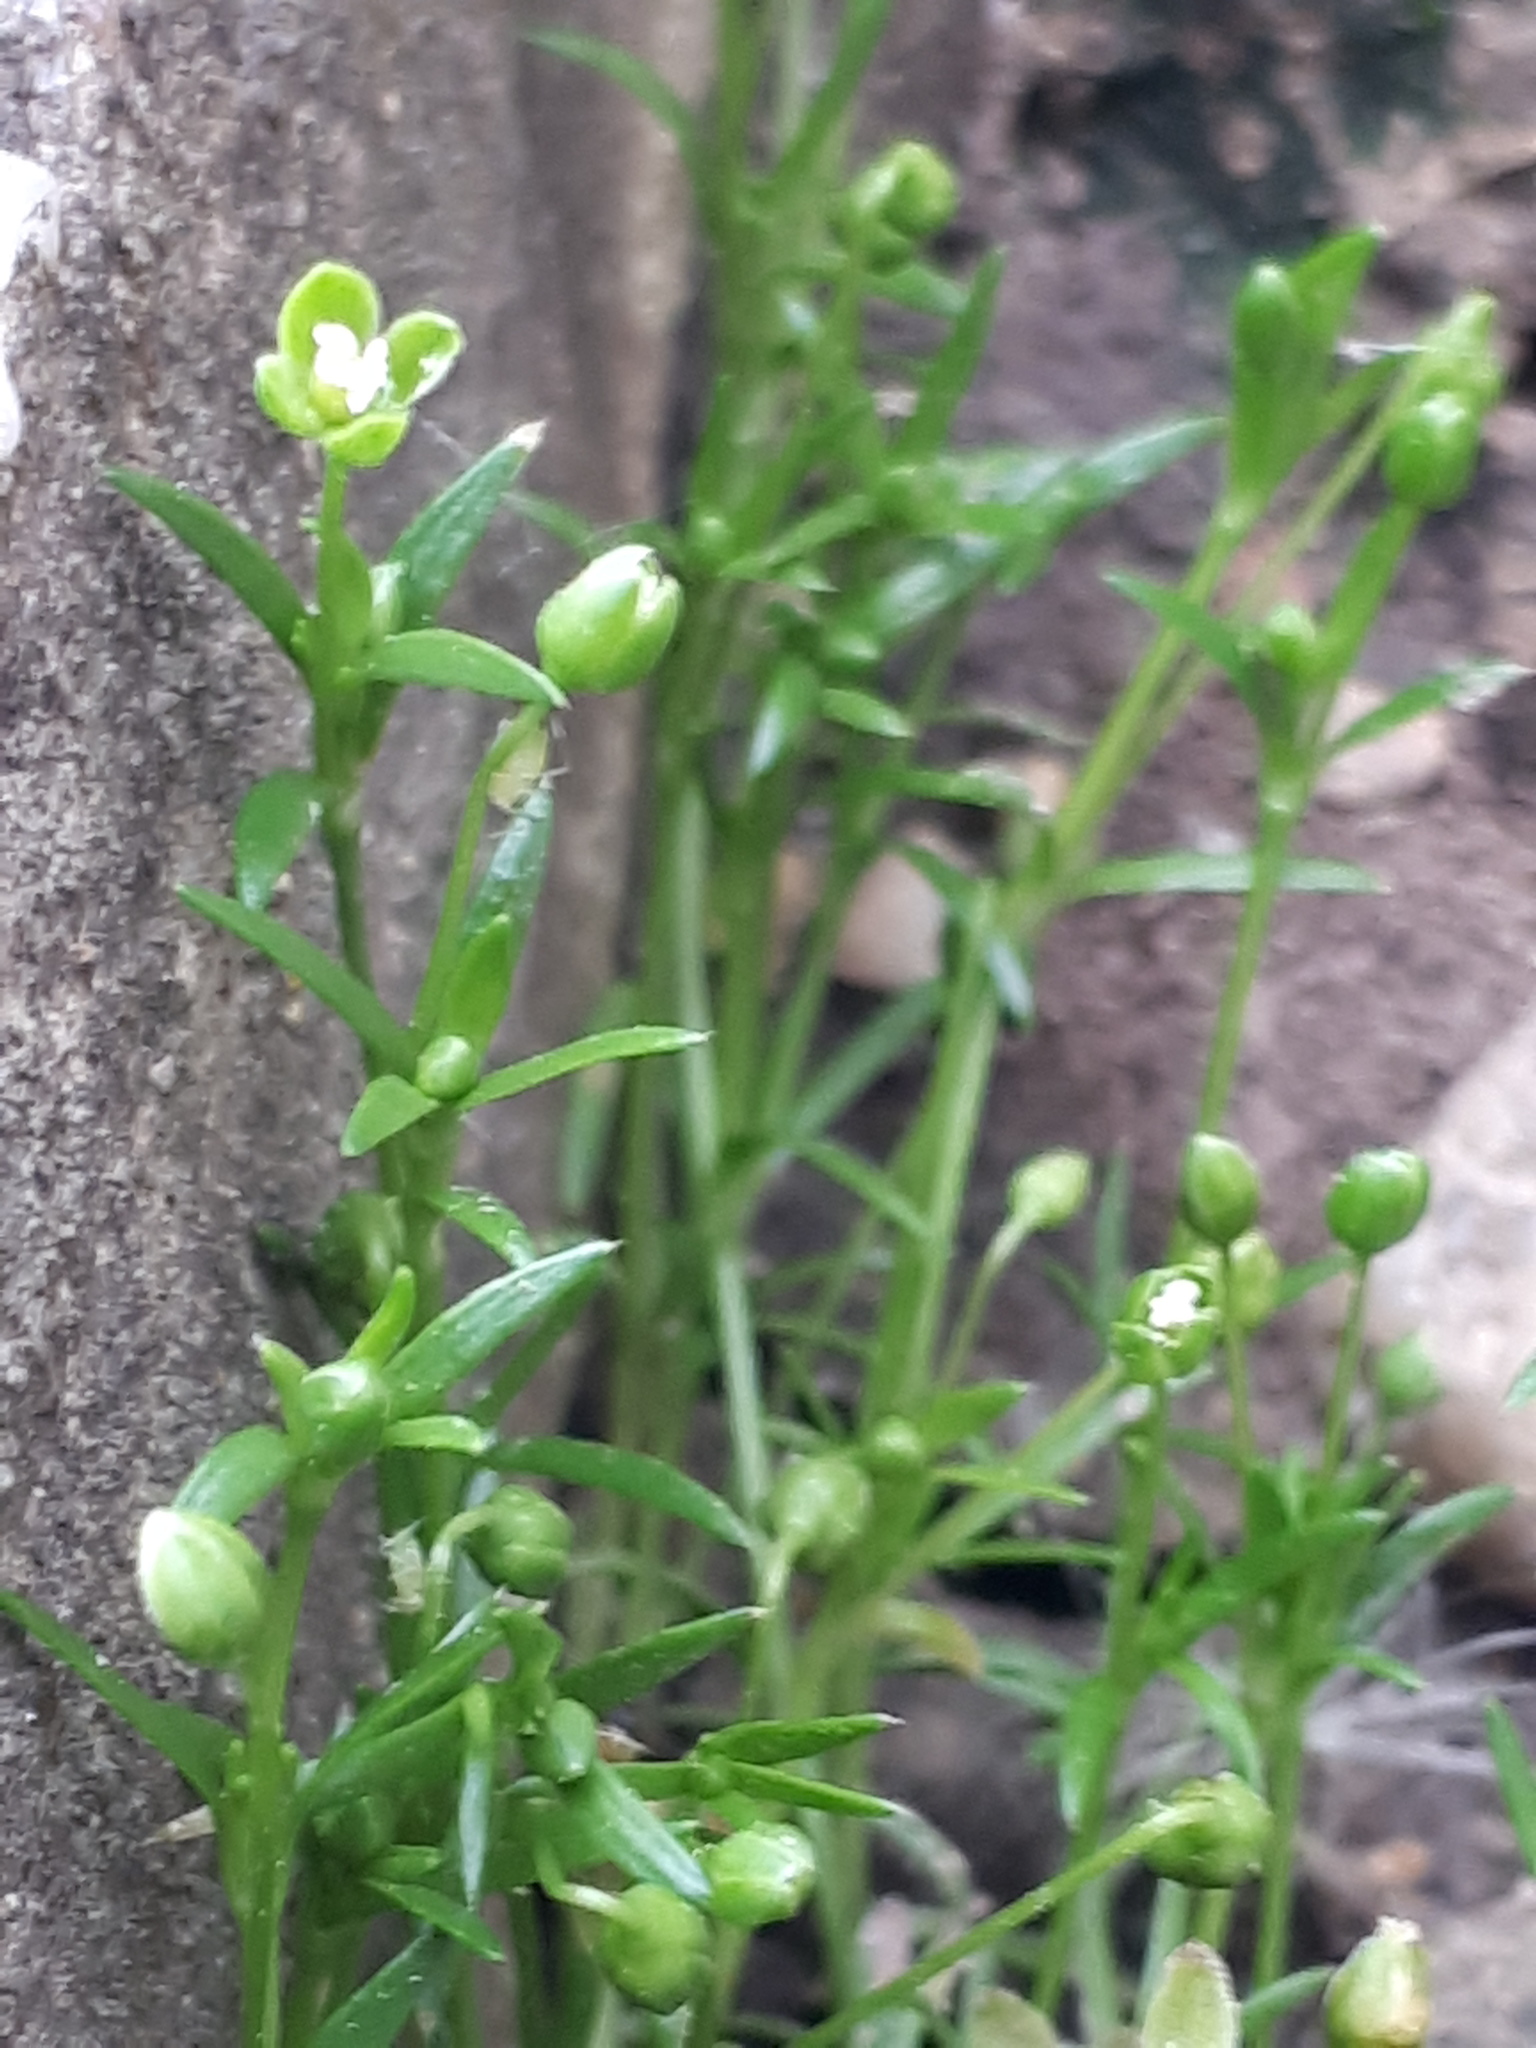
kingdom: Plantae
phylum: Tracheophyta
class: Magnoliopsida
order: Caryophyllales
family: Caryophyllaceae
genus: Sagina
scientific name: Sagina procumbens
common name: Procumbent pearlwort
